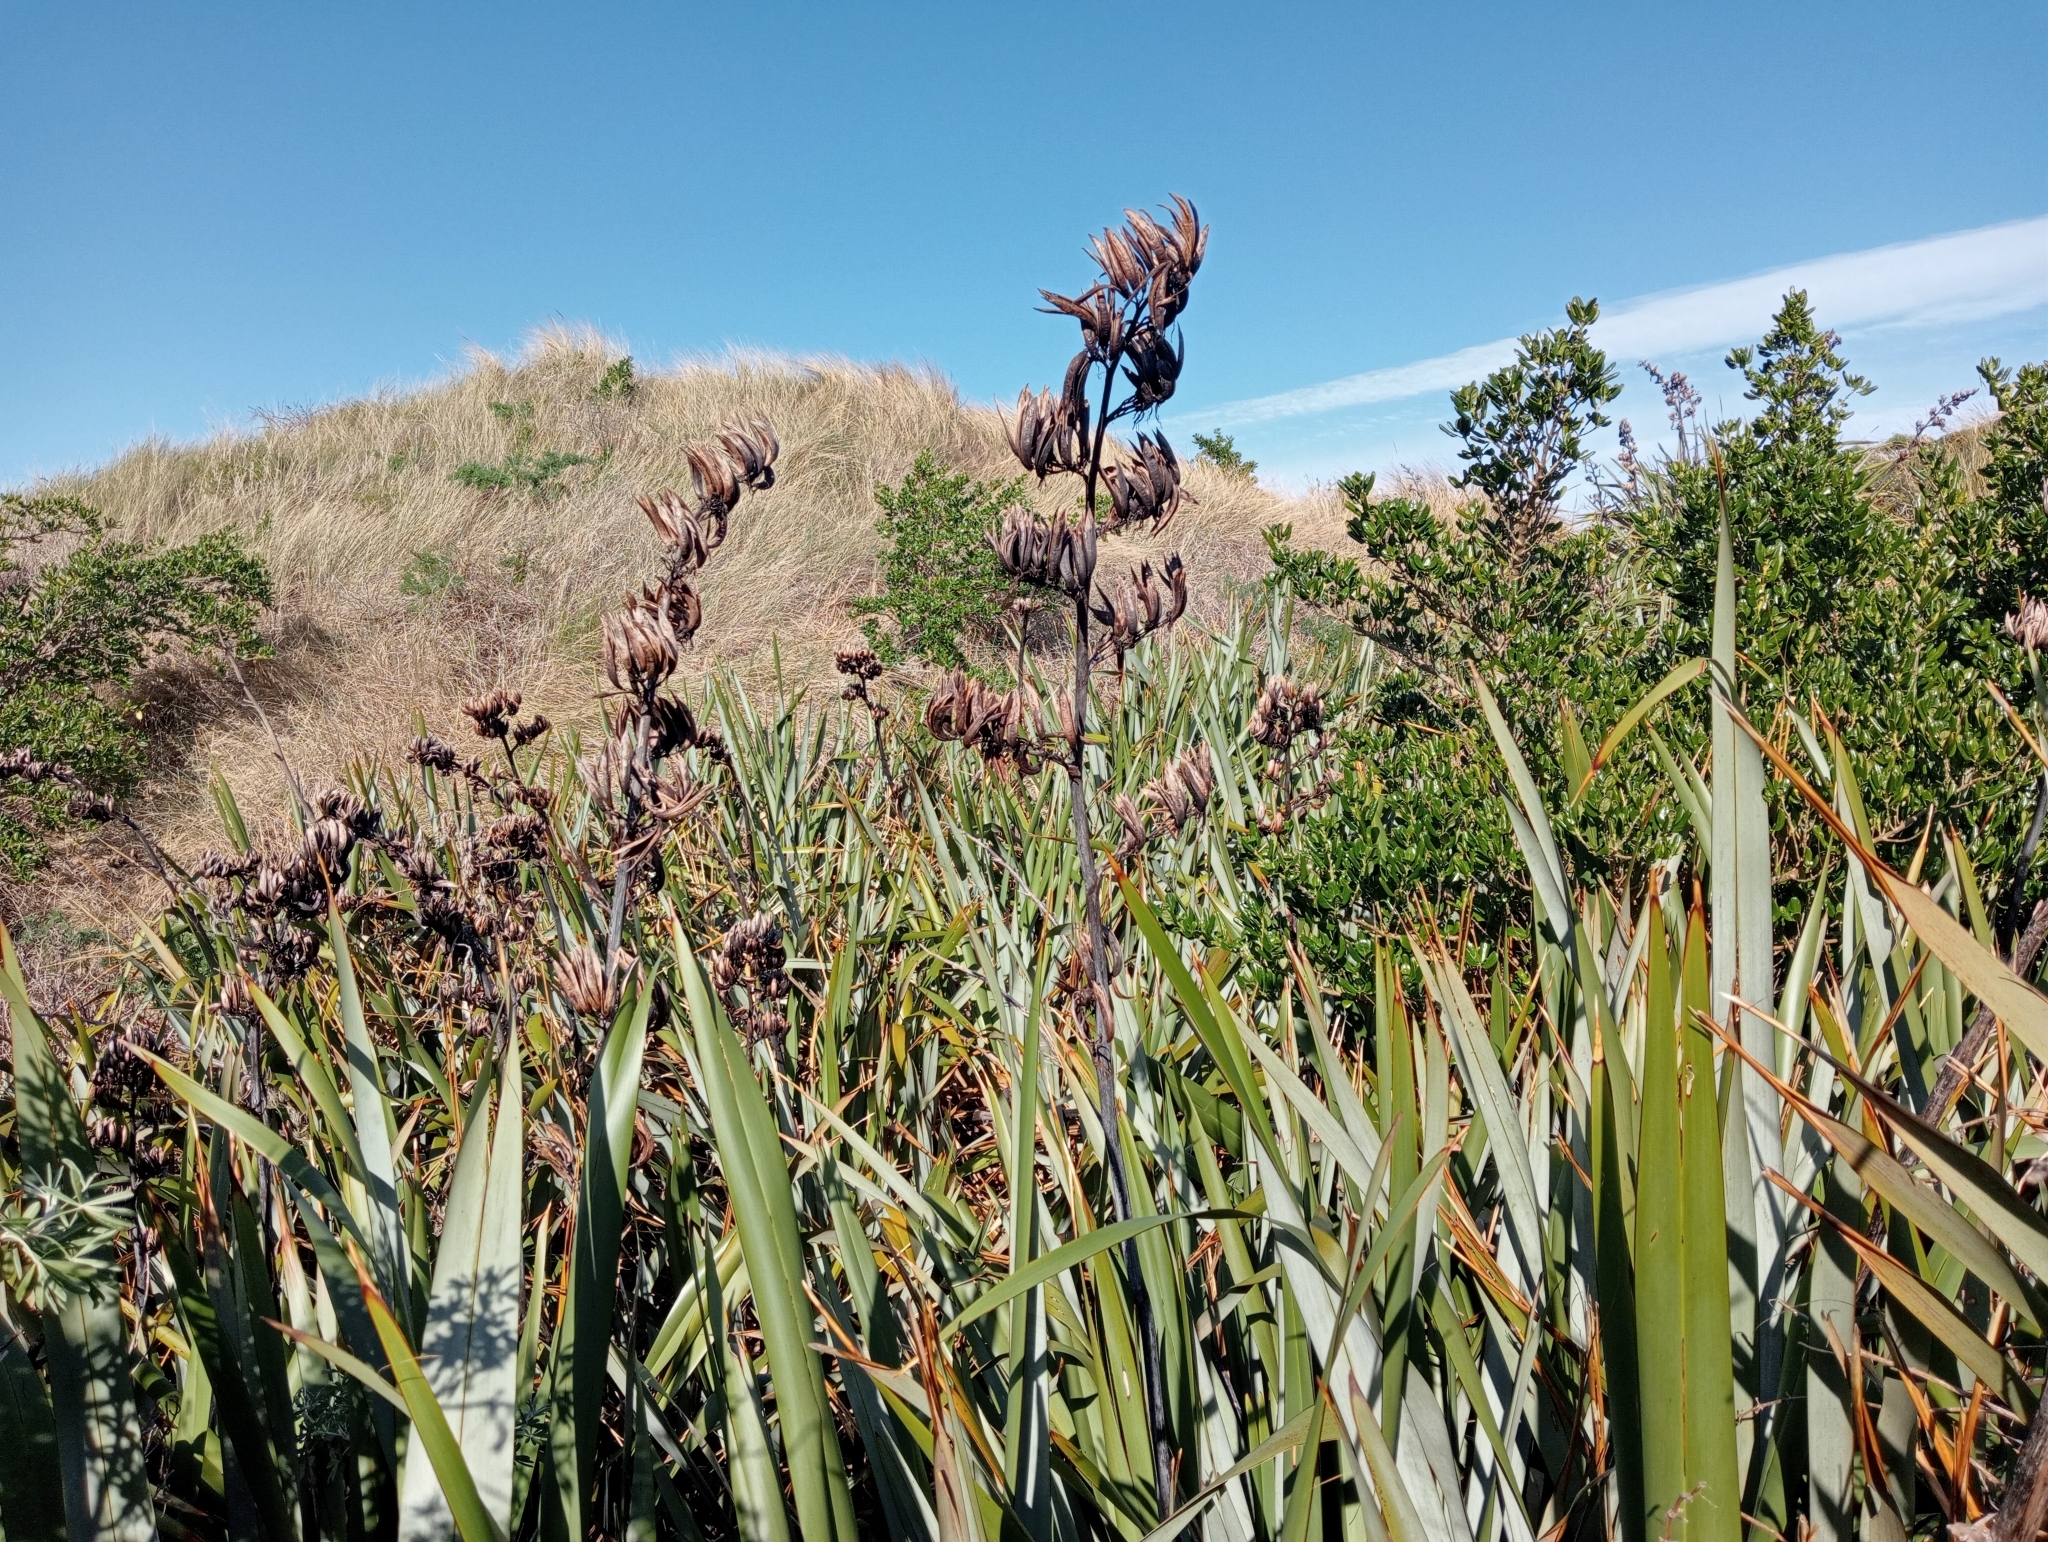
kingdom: Plantae
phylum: Tracheophyta
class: Liliopsida
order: Asparagales
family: Asphodelaceae
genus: Phormium
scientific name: Phormium tenax
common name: New zealand flax
